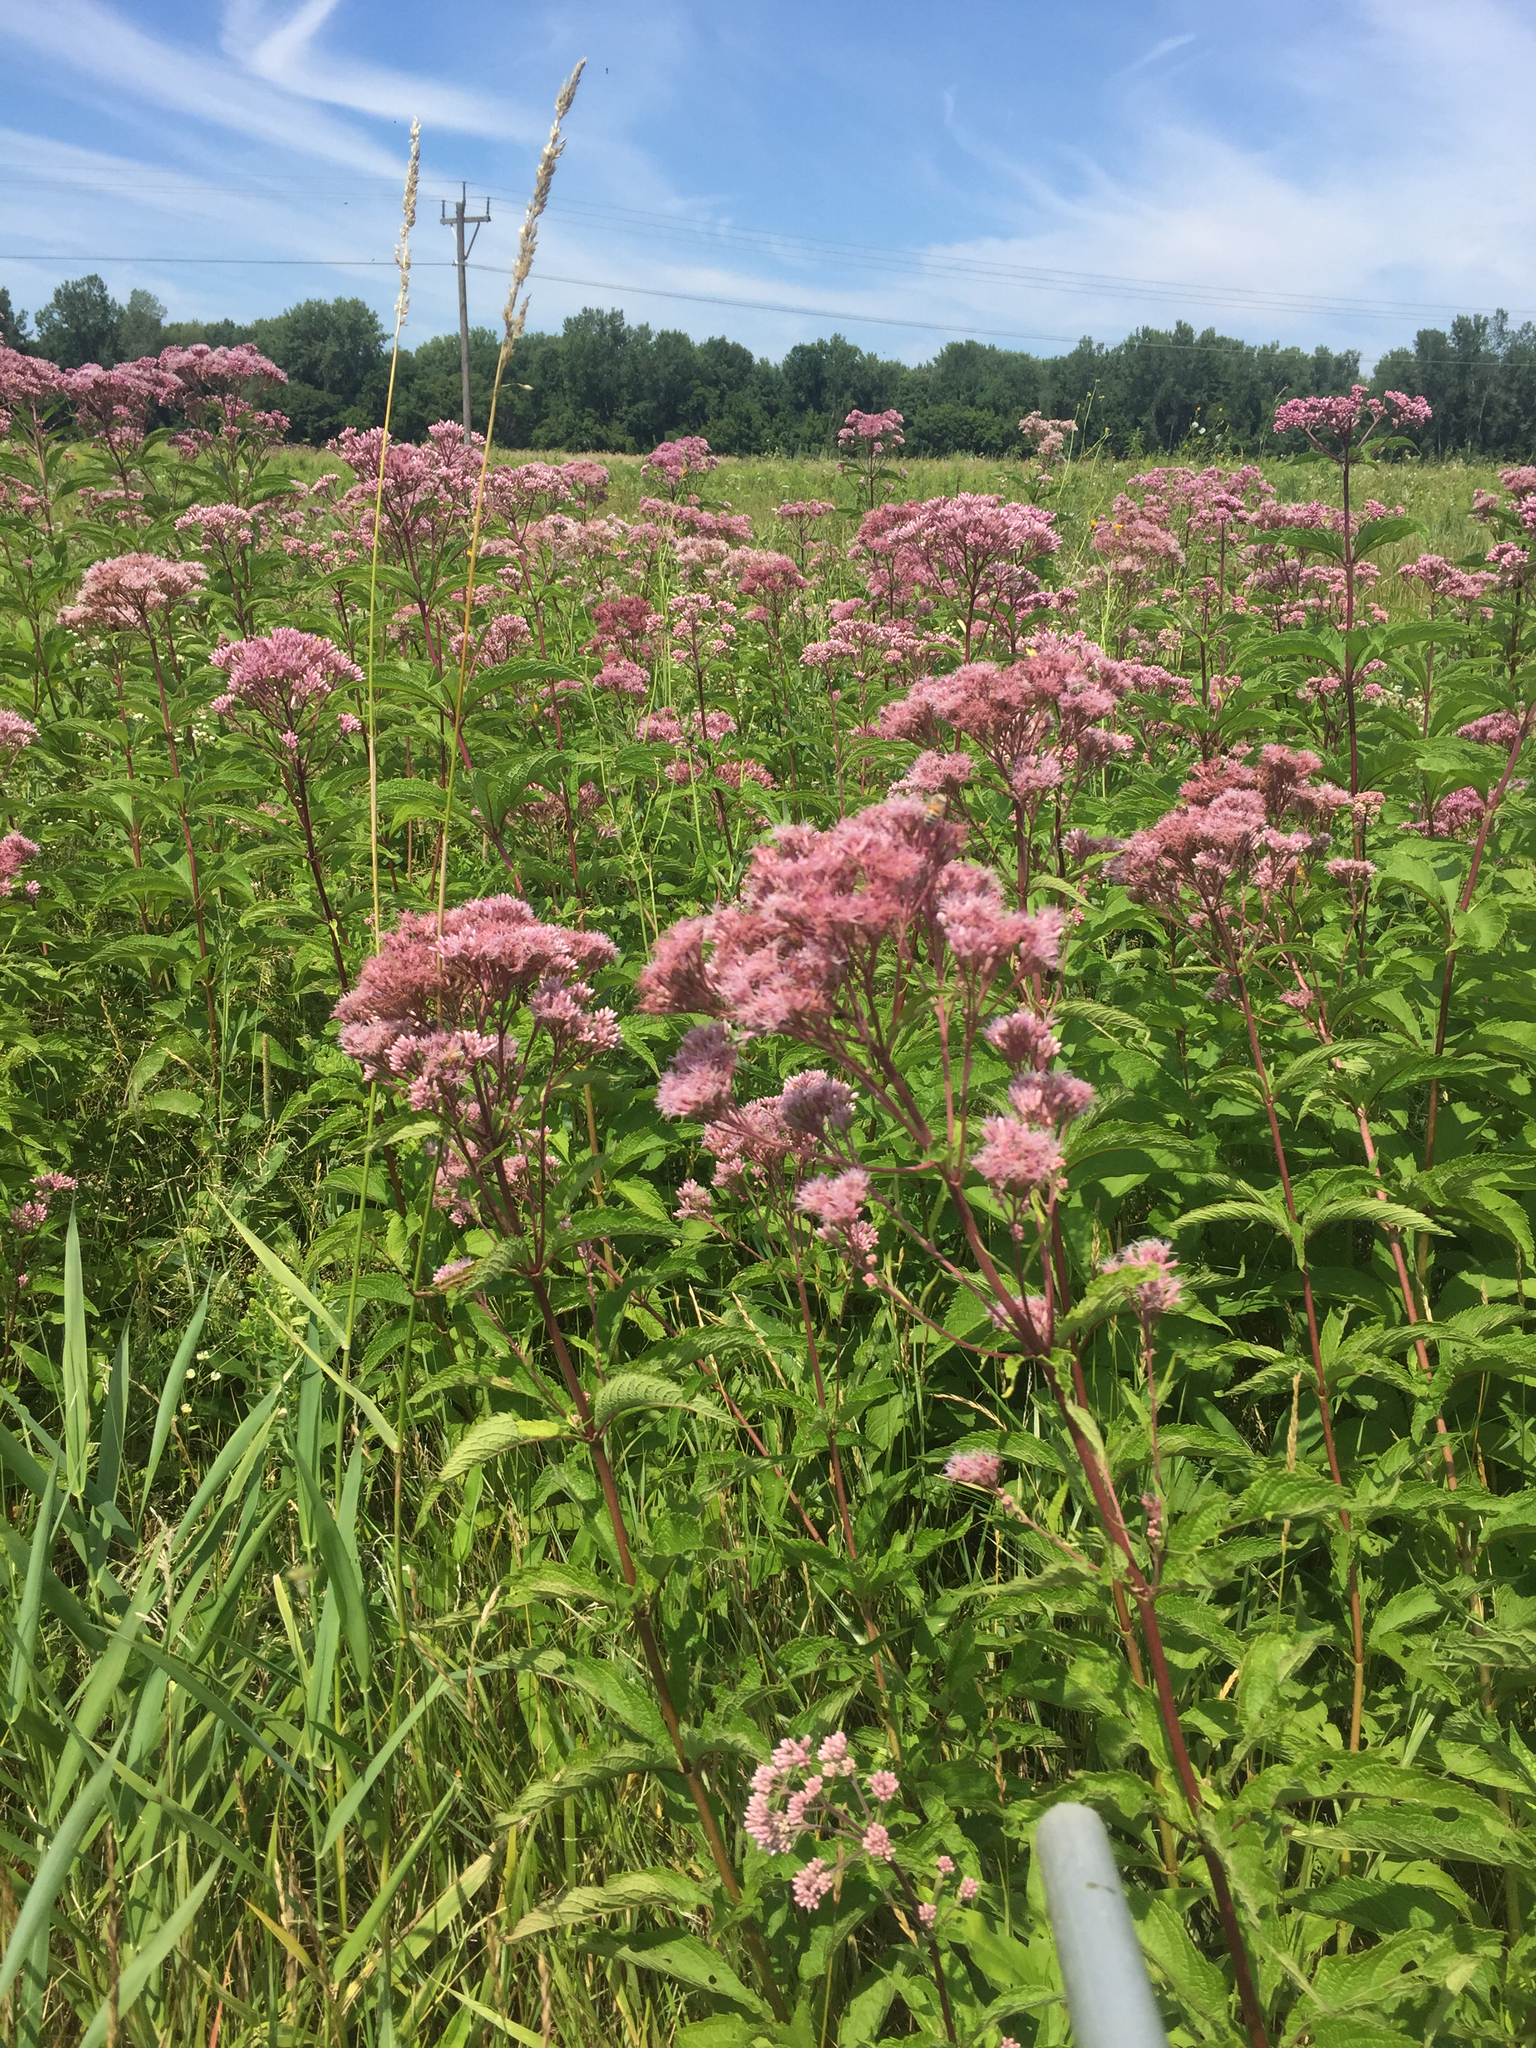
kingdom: Plantae
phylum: Tracheophyta
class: Magnoliopsida
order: Asterales
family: Asteraceae
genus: Eutrochium
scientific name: Eutrochium maculatum
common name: Spotted joe pye weed
